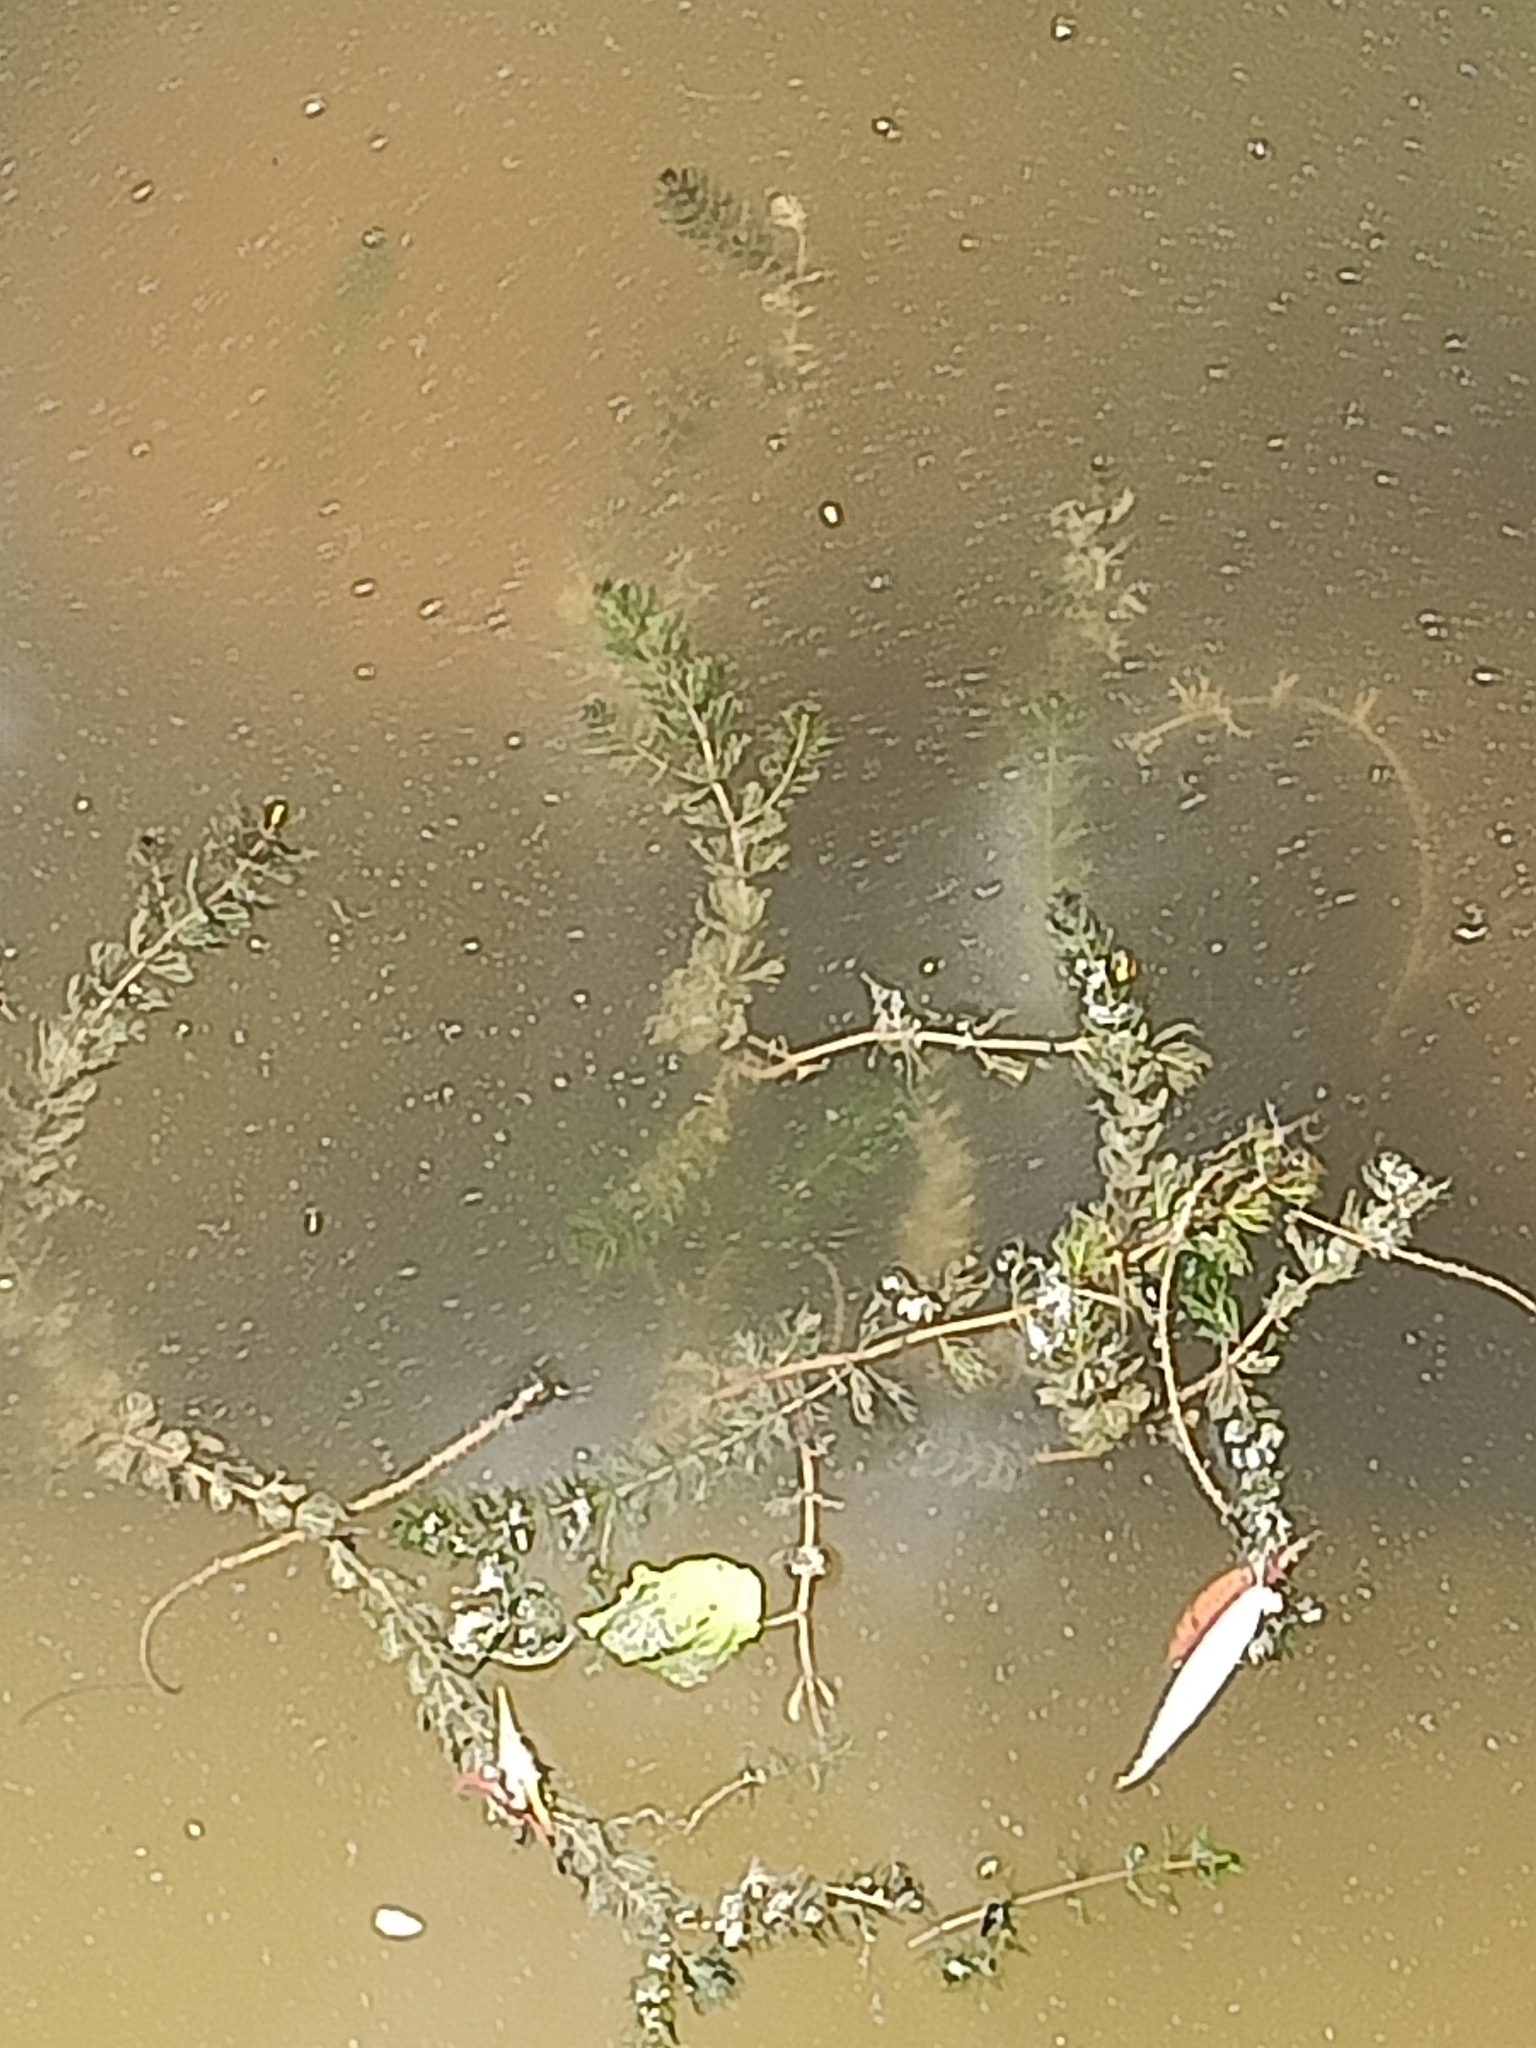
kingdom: Plantae
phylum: Tracheophyta
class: Magnoliopsida
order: Saxifragales
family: Haloragaceae
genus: Myriophyllum
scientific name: Myriophyllum spicatum
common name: Spiked water-milfoil
